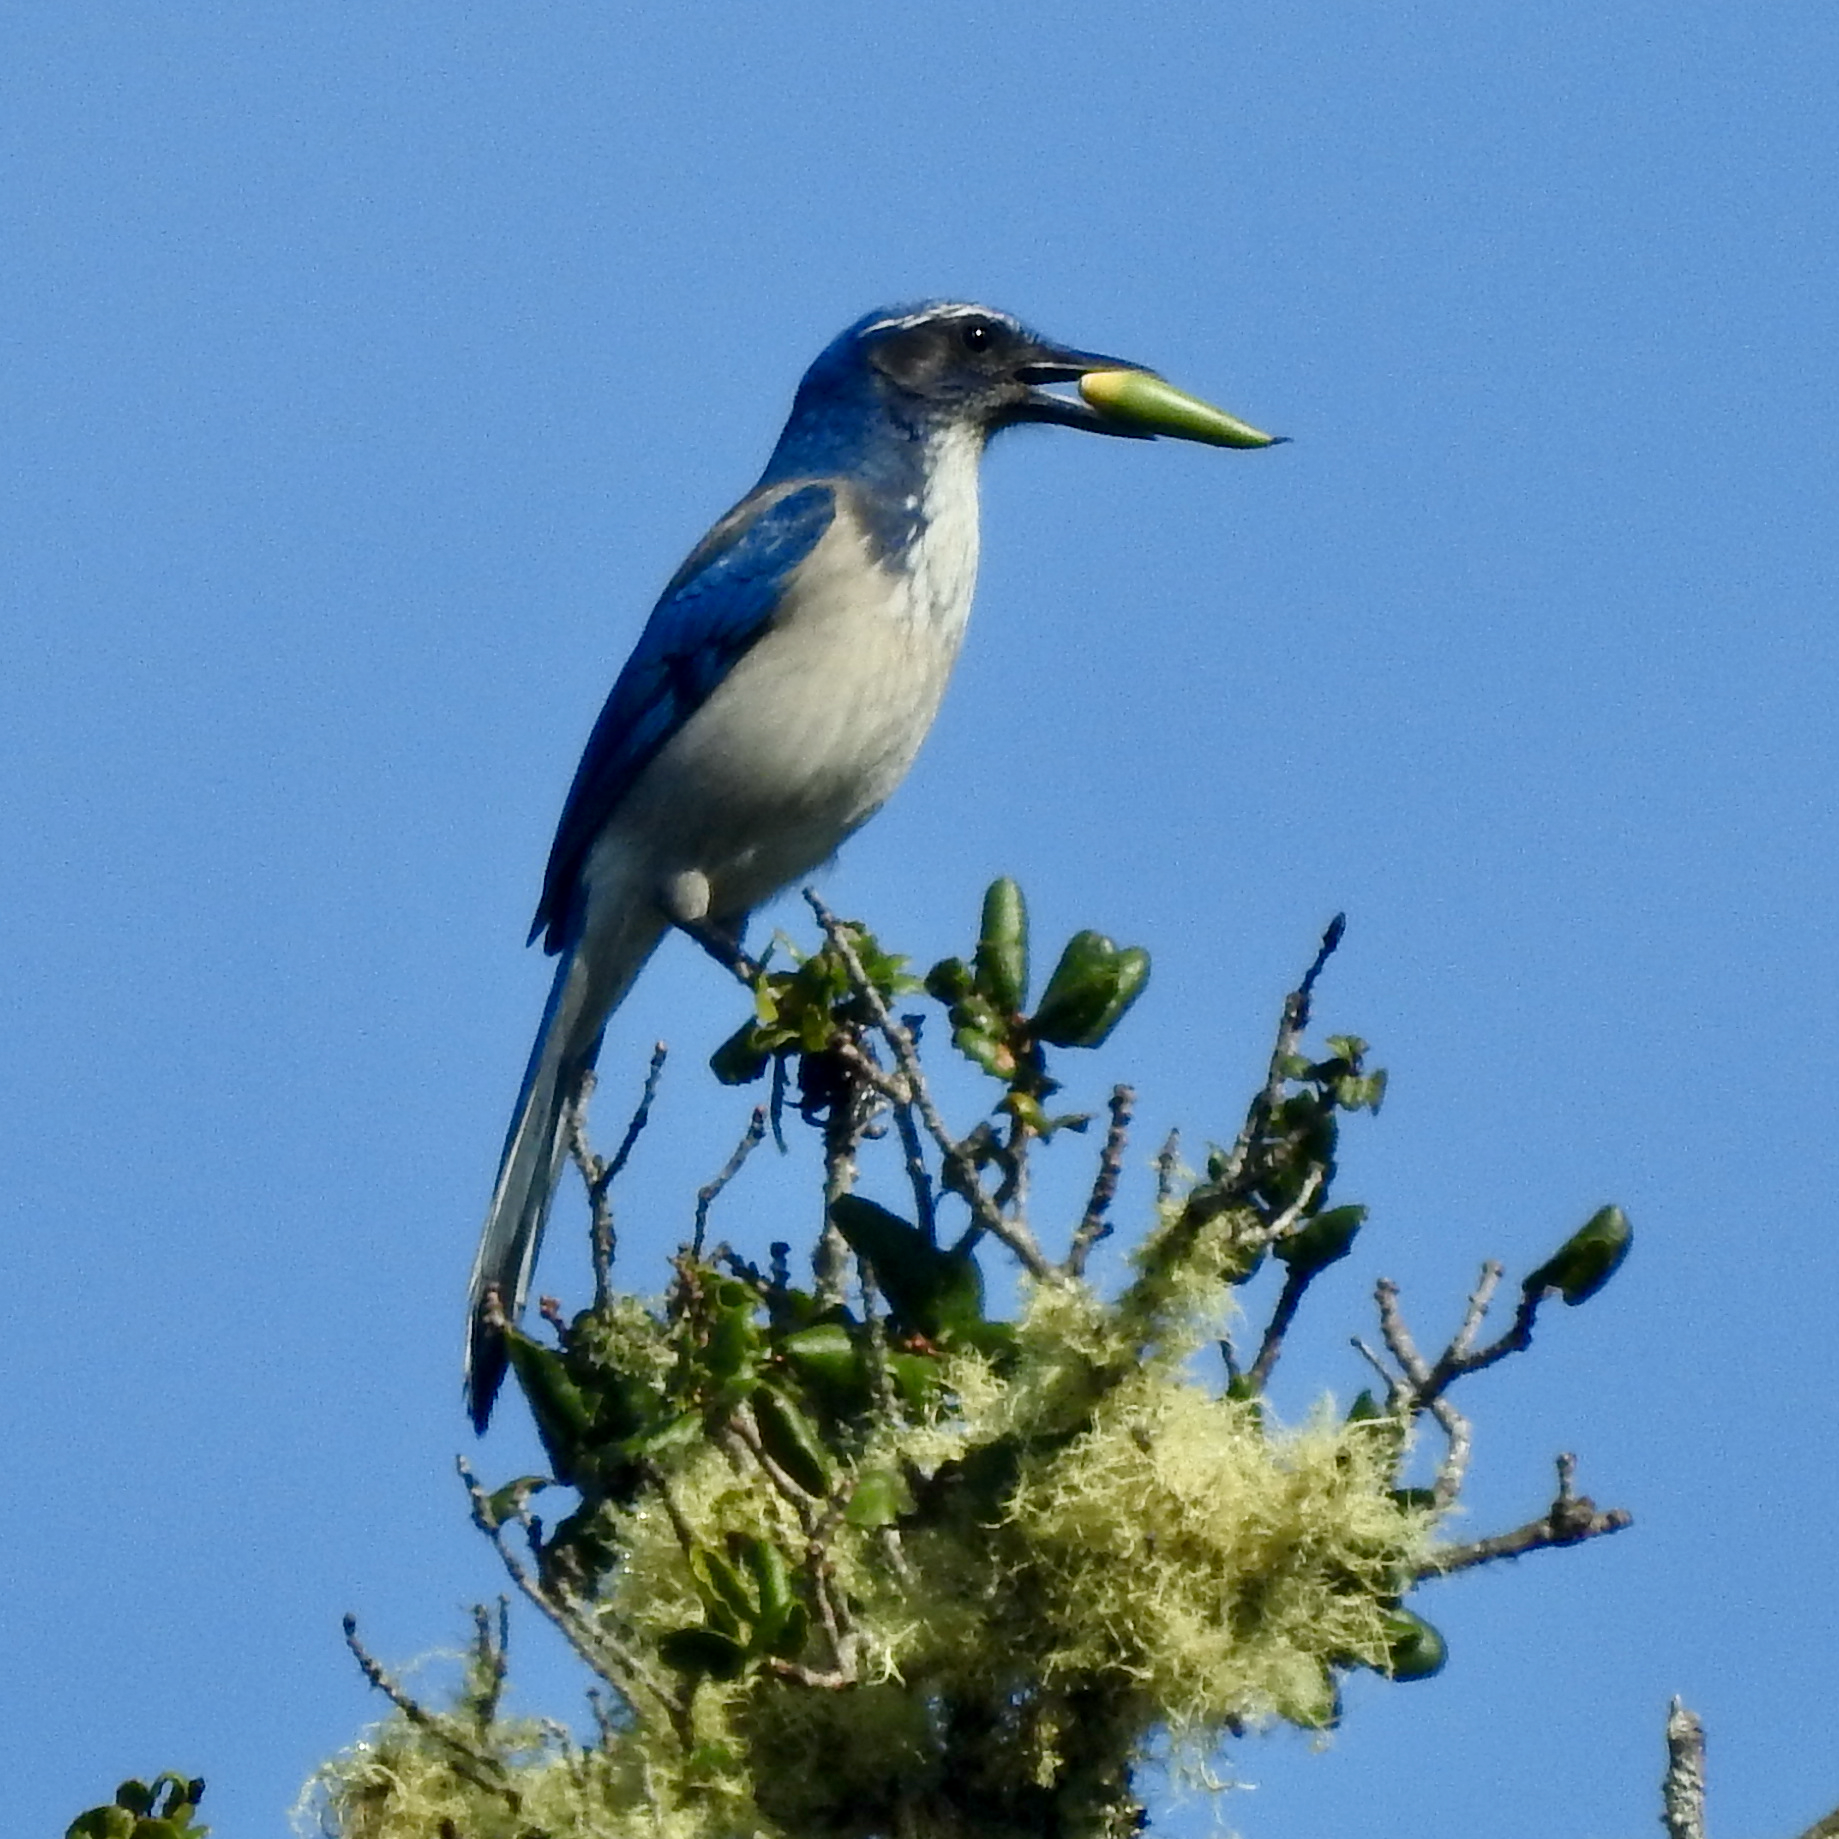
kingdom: Plantae
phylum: Tracheophyta
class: Magnoliopsida
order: Fagales
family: Fagaceae
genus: Quercus
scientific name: Quercus agrifolia
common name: California live oak
